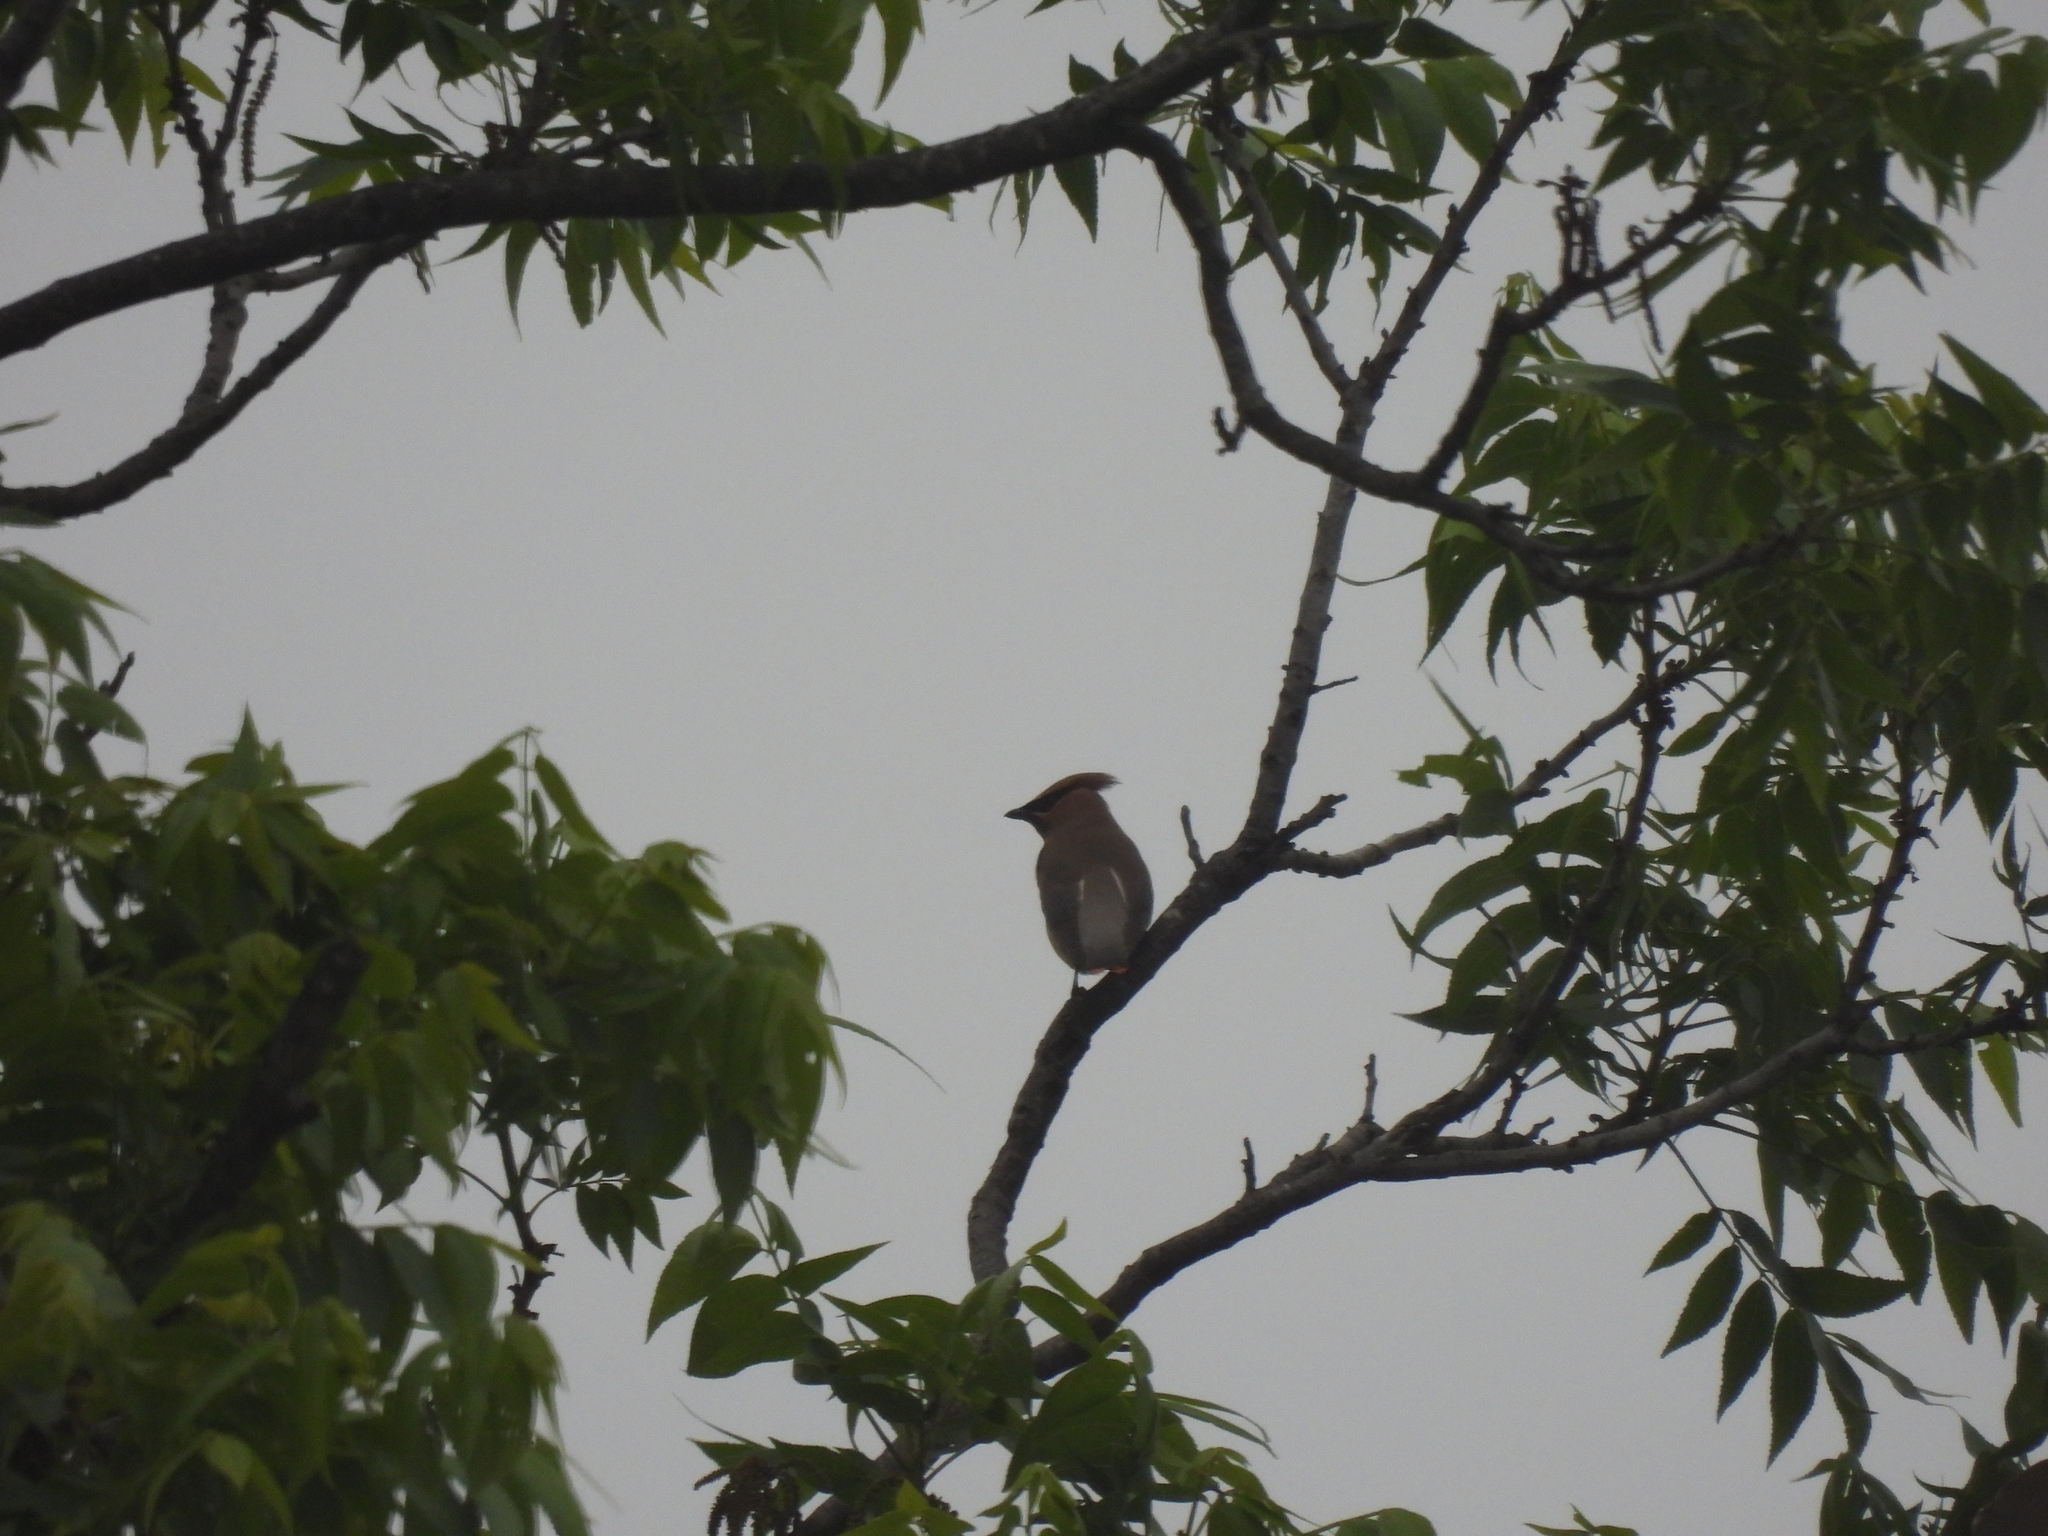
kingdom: Animalia
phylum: Chordata
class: Aves
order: Passeriformes
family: Bombycillidae
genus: Bombycilla
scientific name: Bombycilla cedrorum
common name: Cedar waxwing
